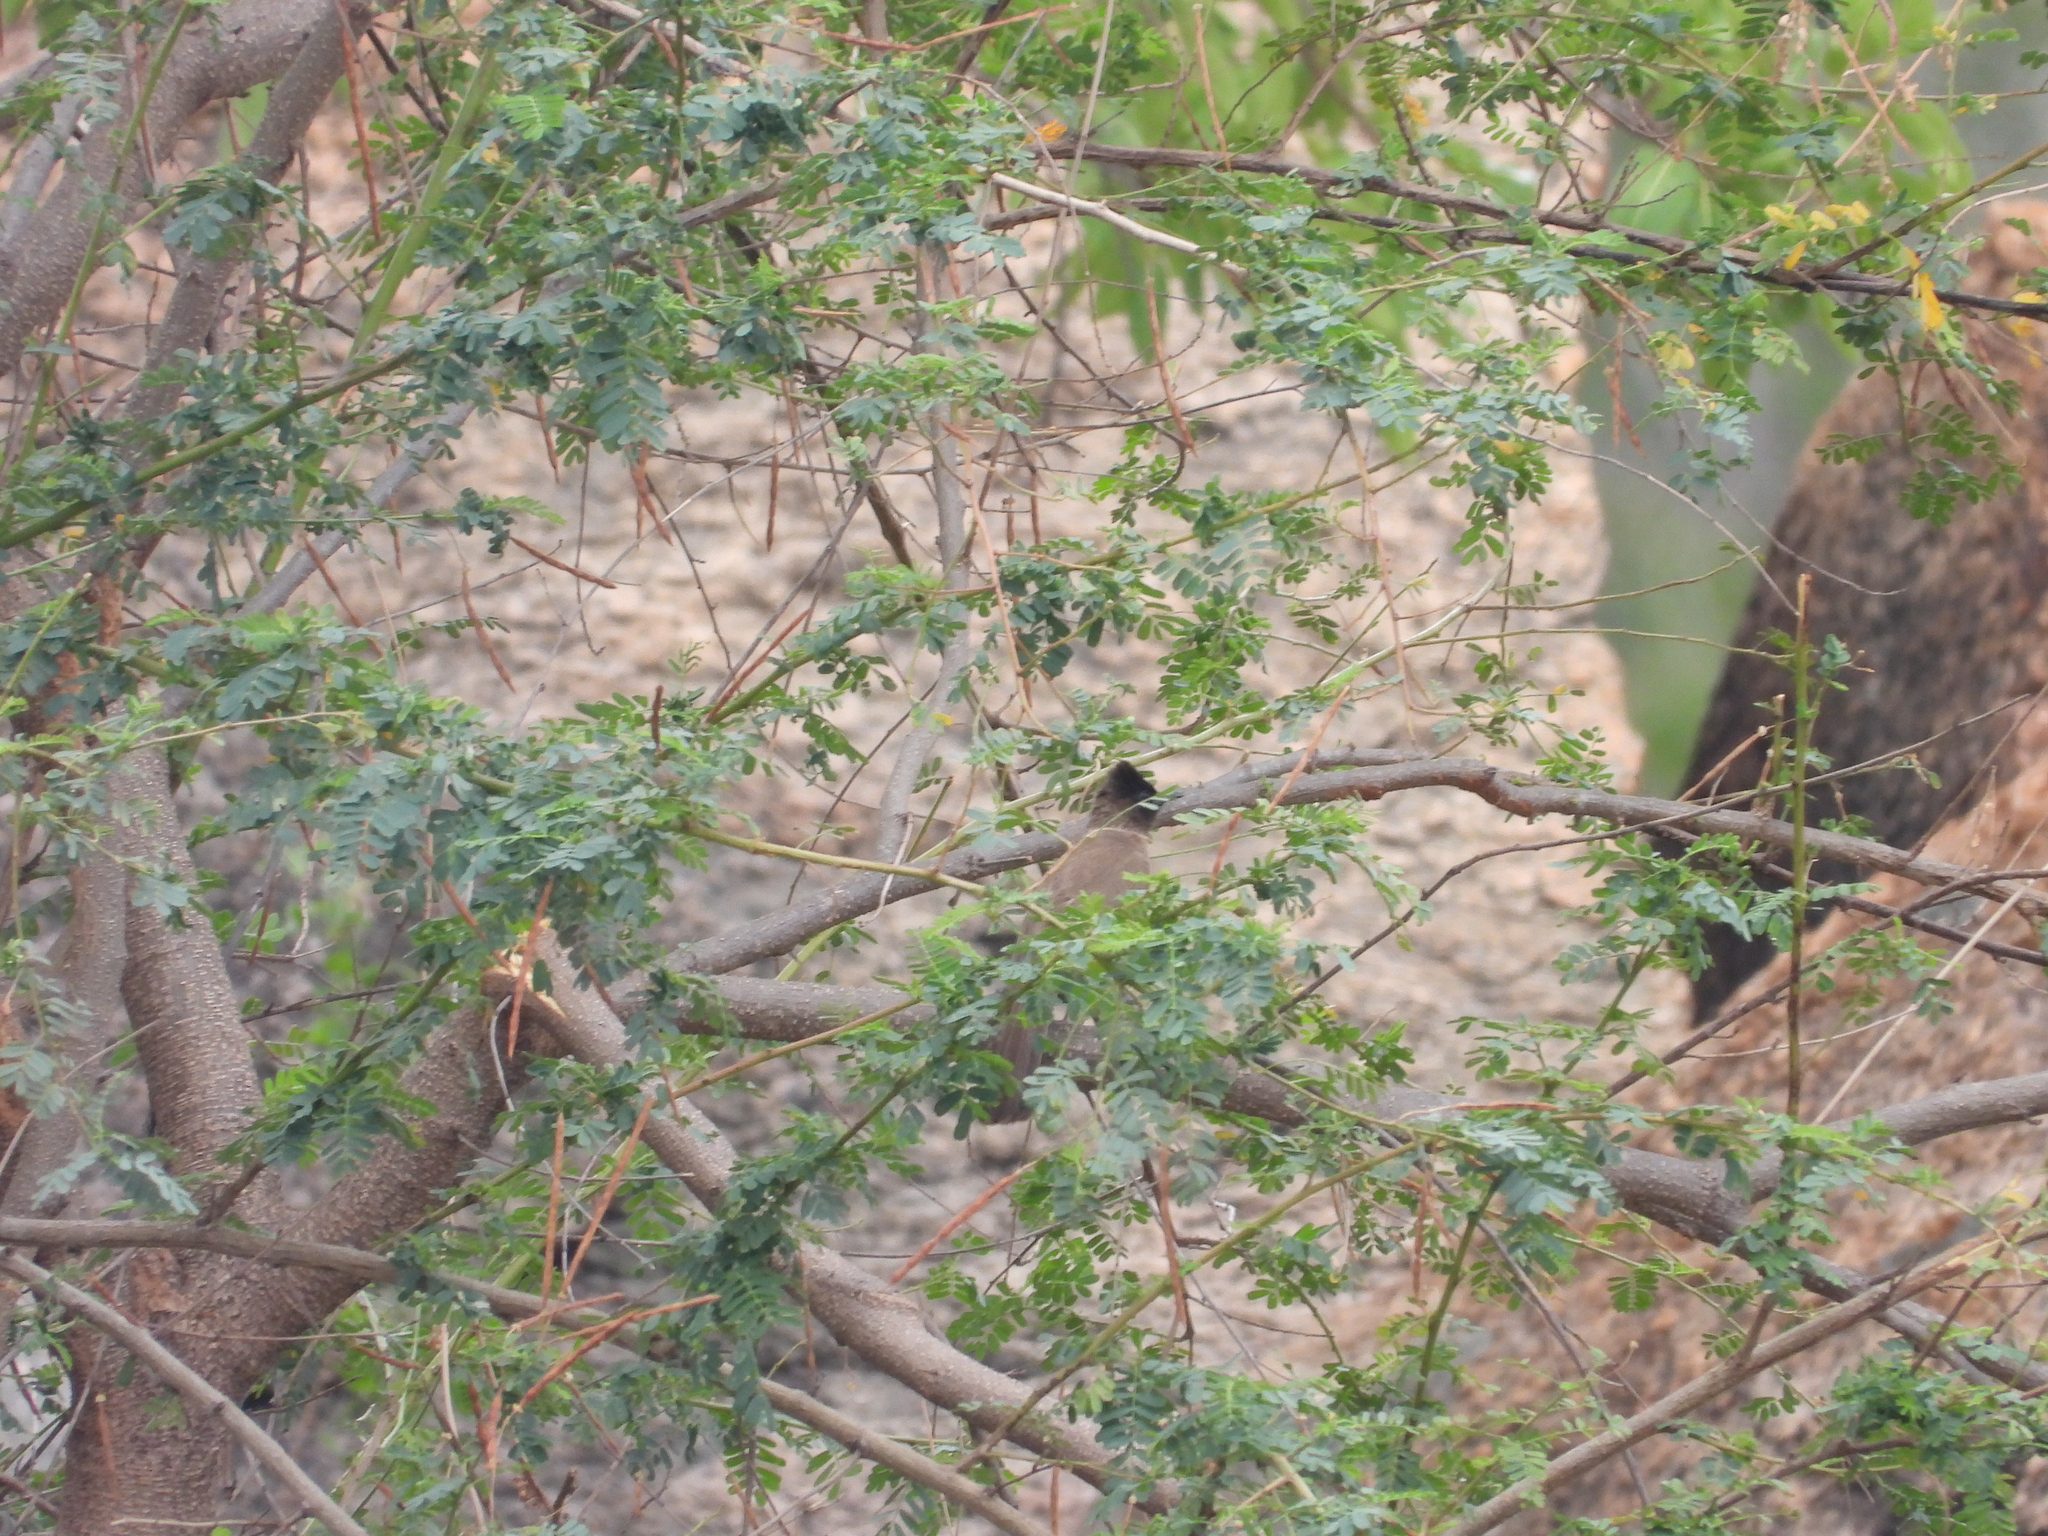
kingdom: Animalia
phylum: Chordata
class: Aves
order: Passeriformes
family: Pycnonotidae
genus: Pycnonotus
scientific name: Pycnonotus barbatus
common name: Common bulbul
